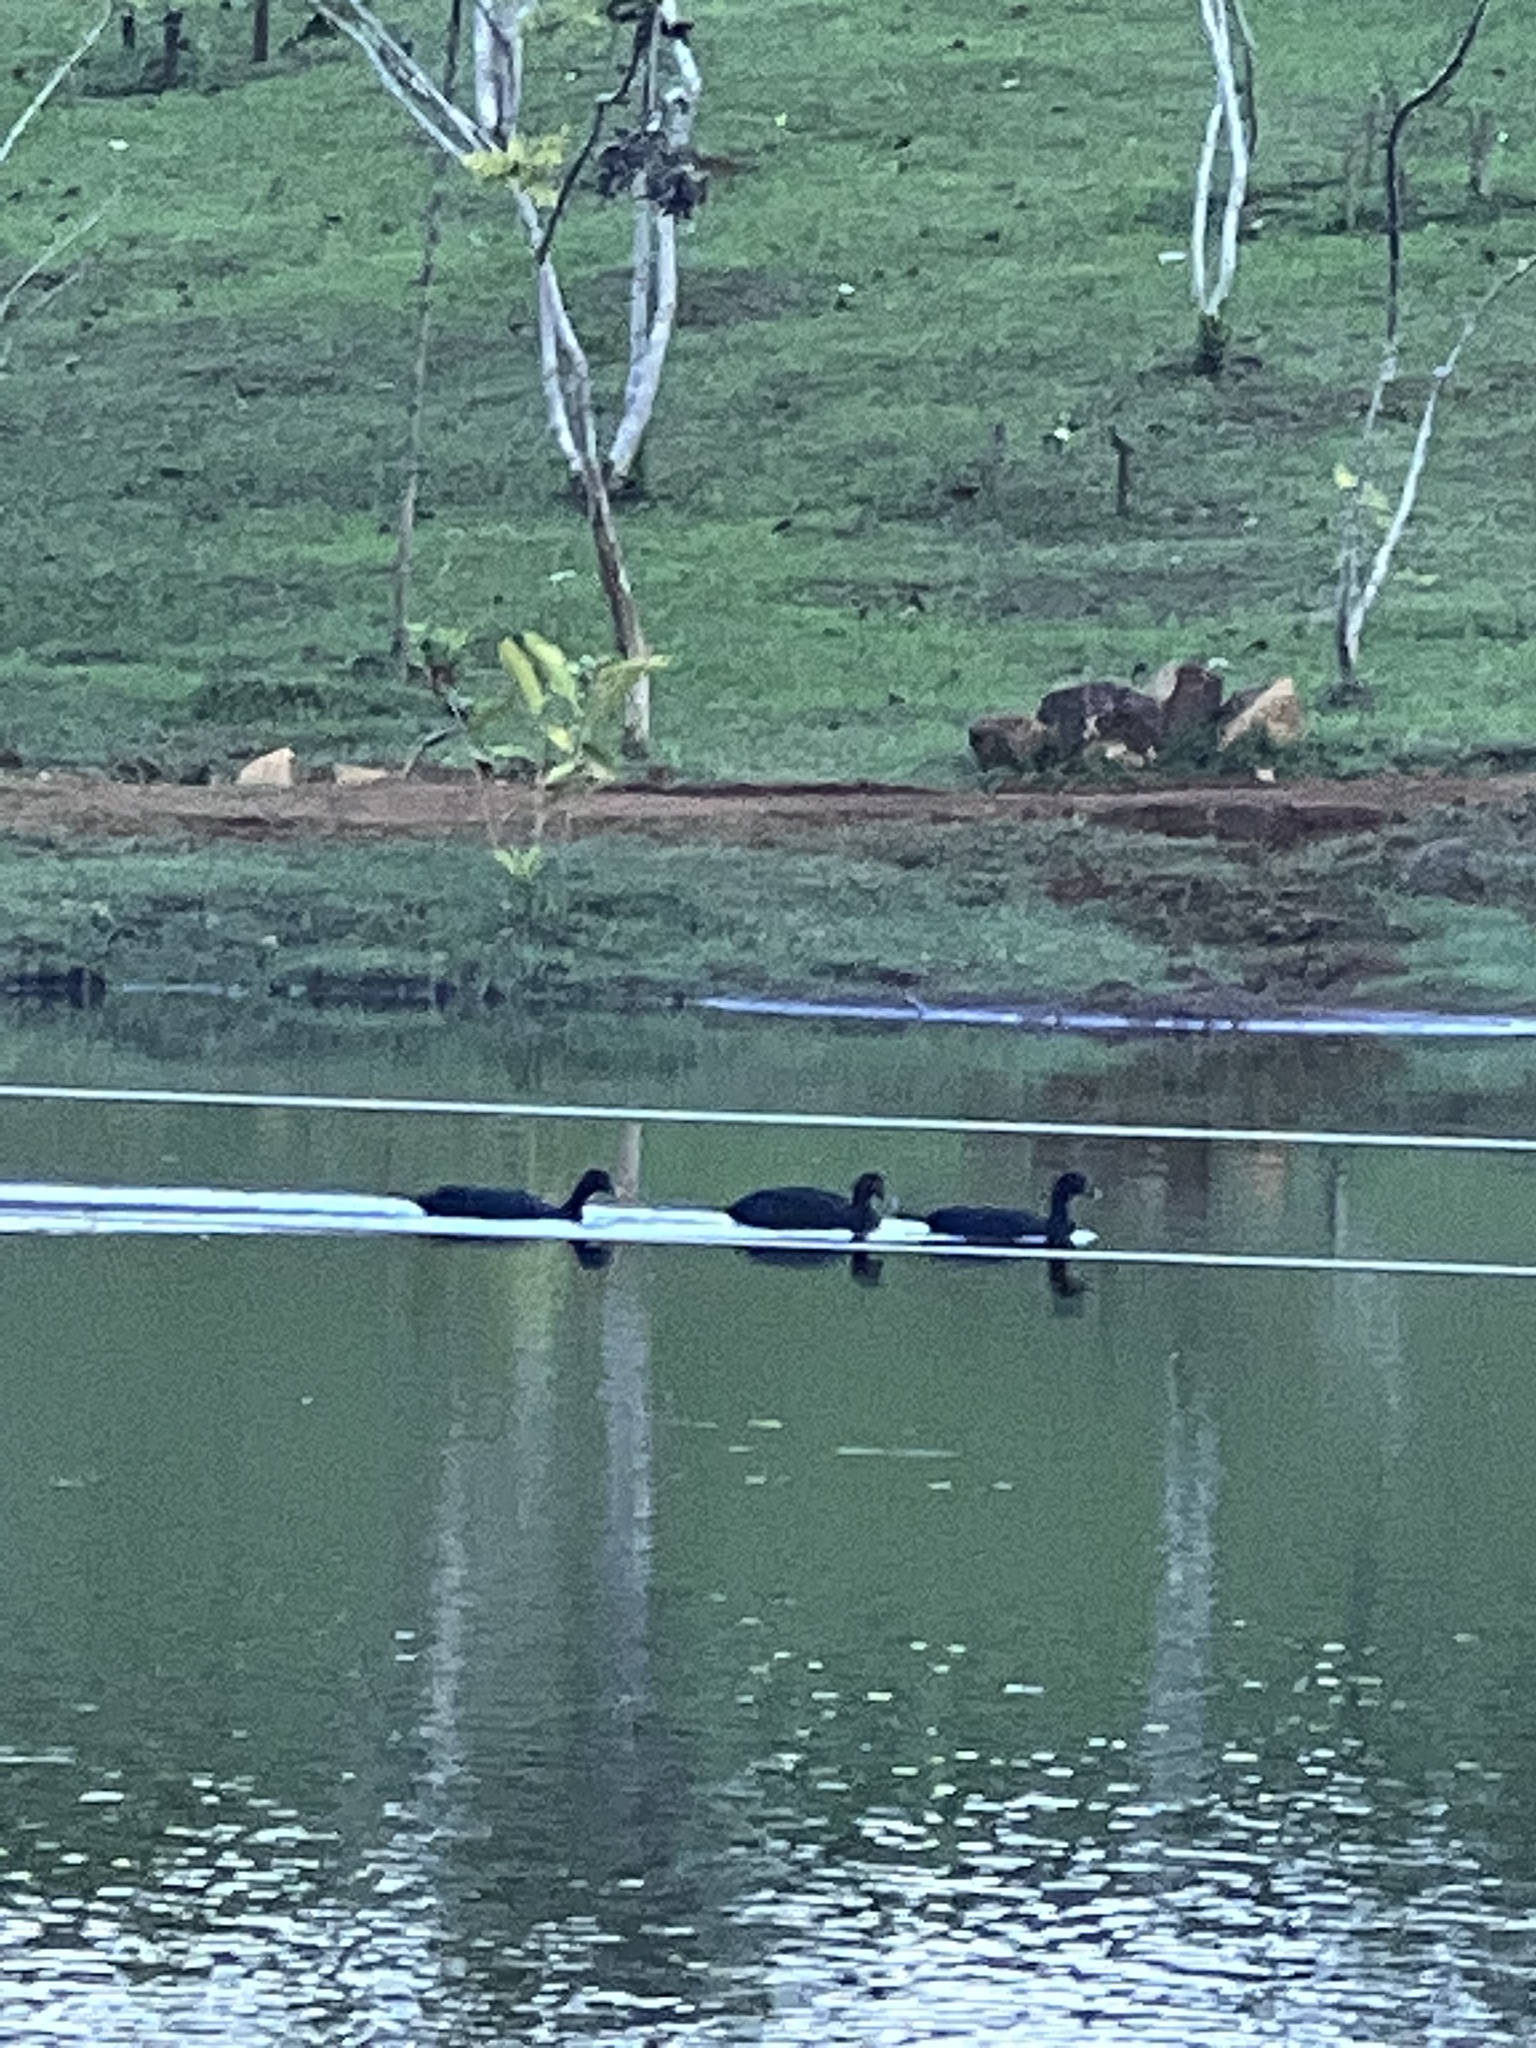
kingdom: Animalia
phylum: Chordata
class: Aves
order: Anseriformes
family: Anatidae
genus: Cairina
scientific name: Cairina moschata
